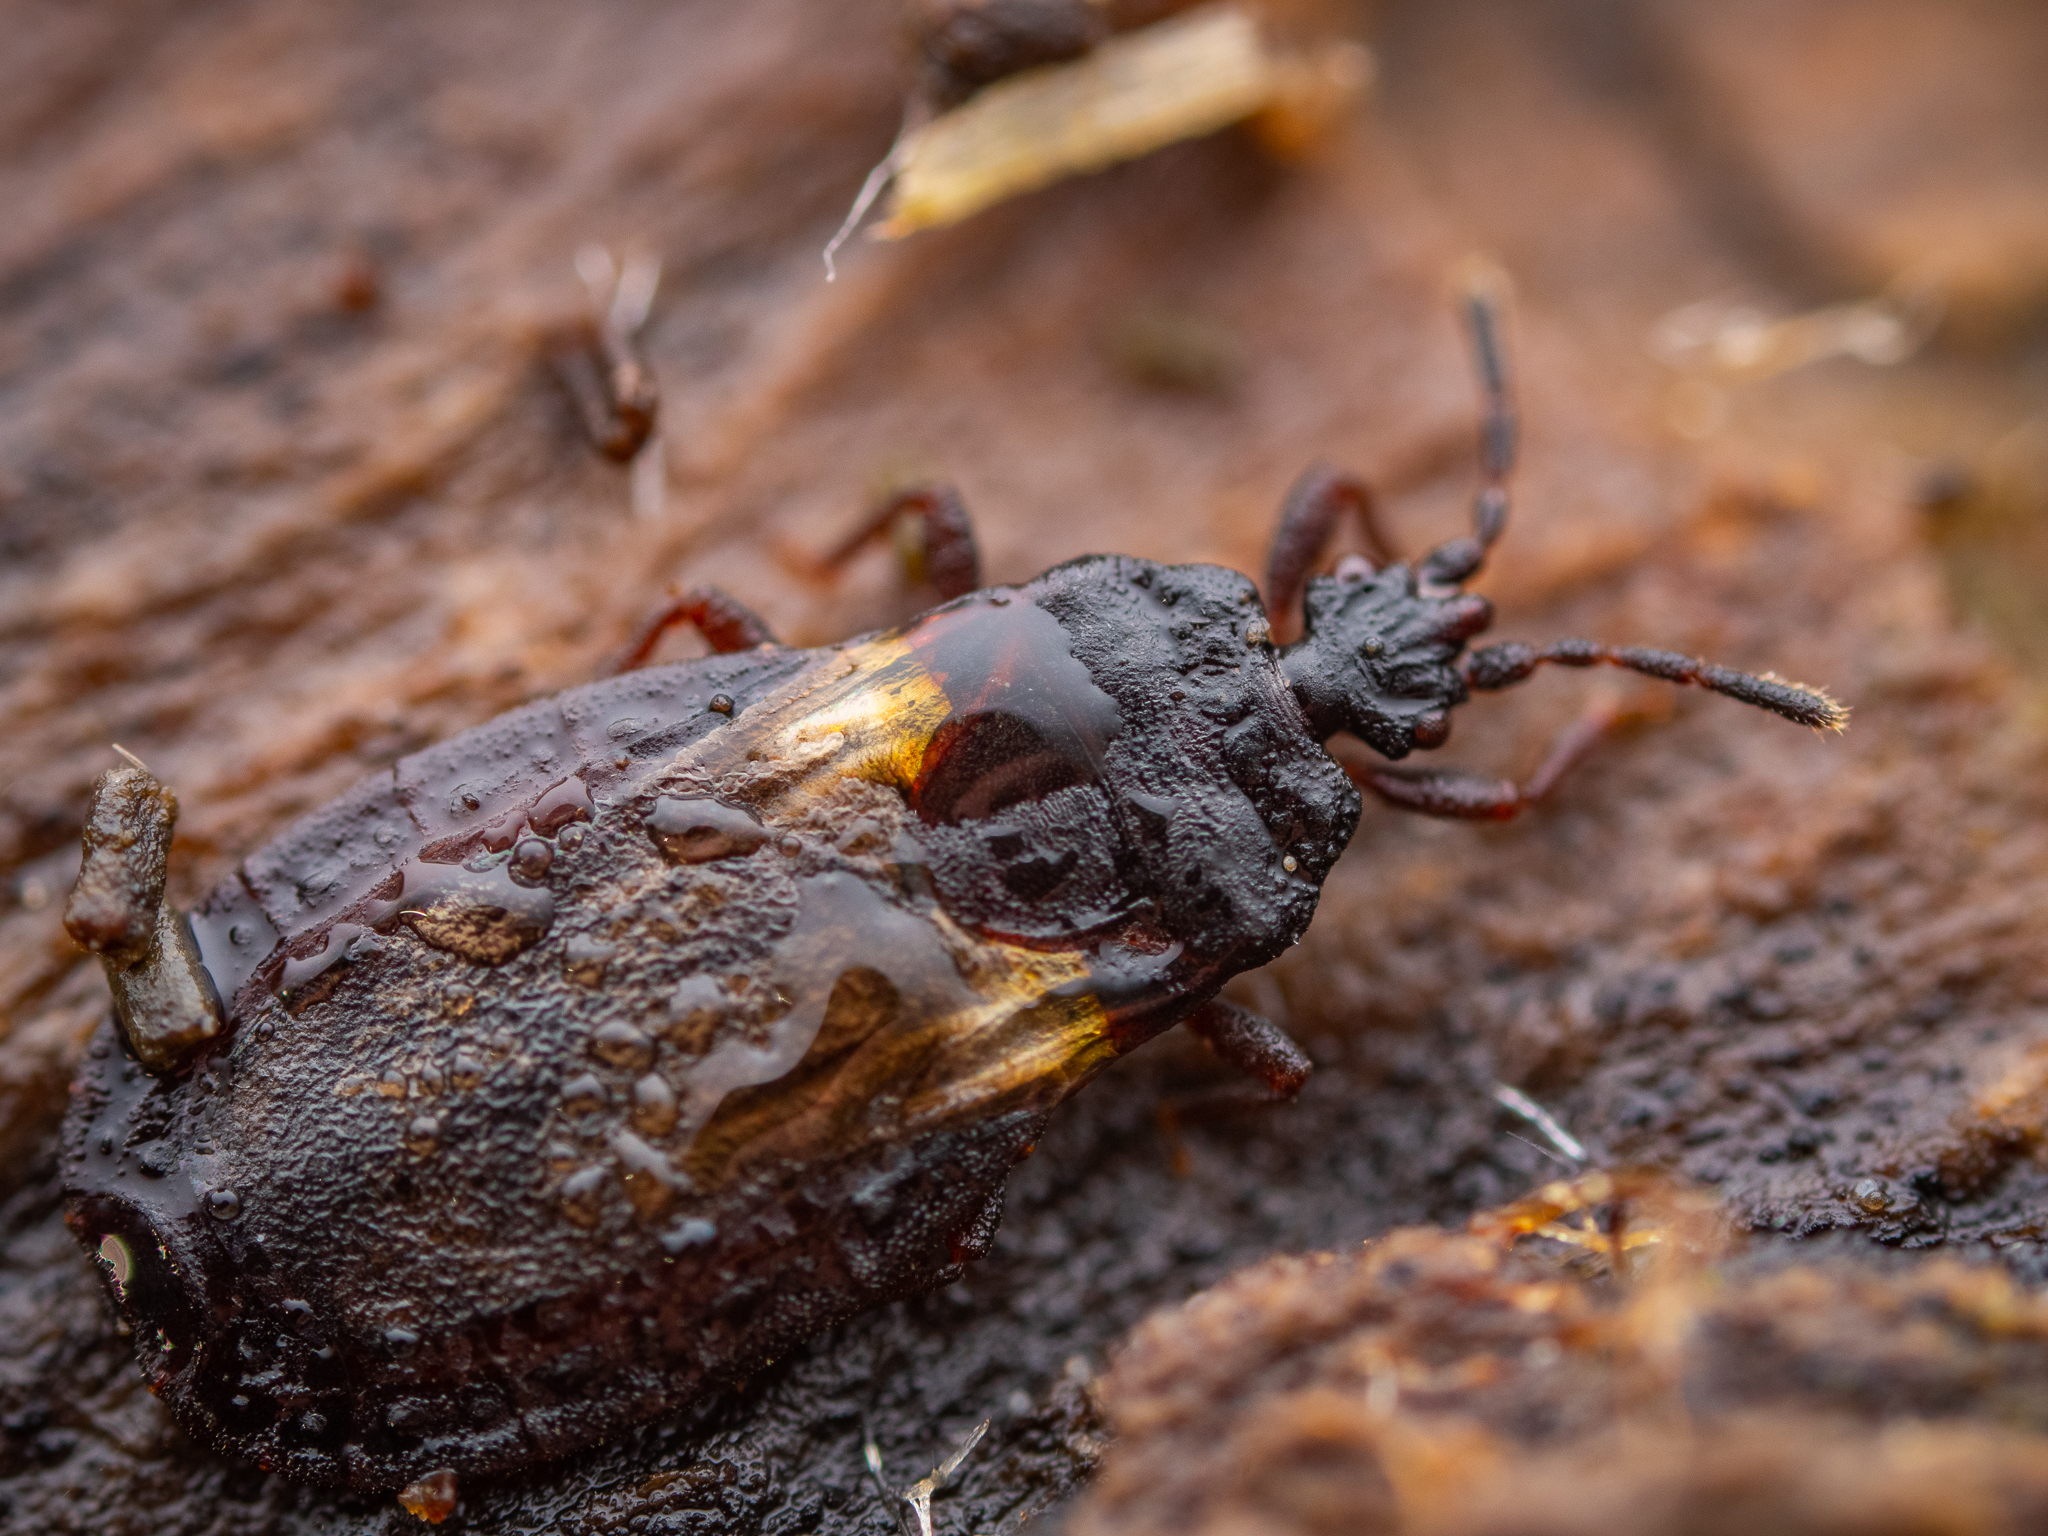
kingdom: Animalia
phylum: Arthropoda
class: Insecta
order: Hemiptera
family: Aradidae
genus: Aneurus
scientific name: Aneurus avenius
